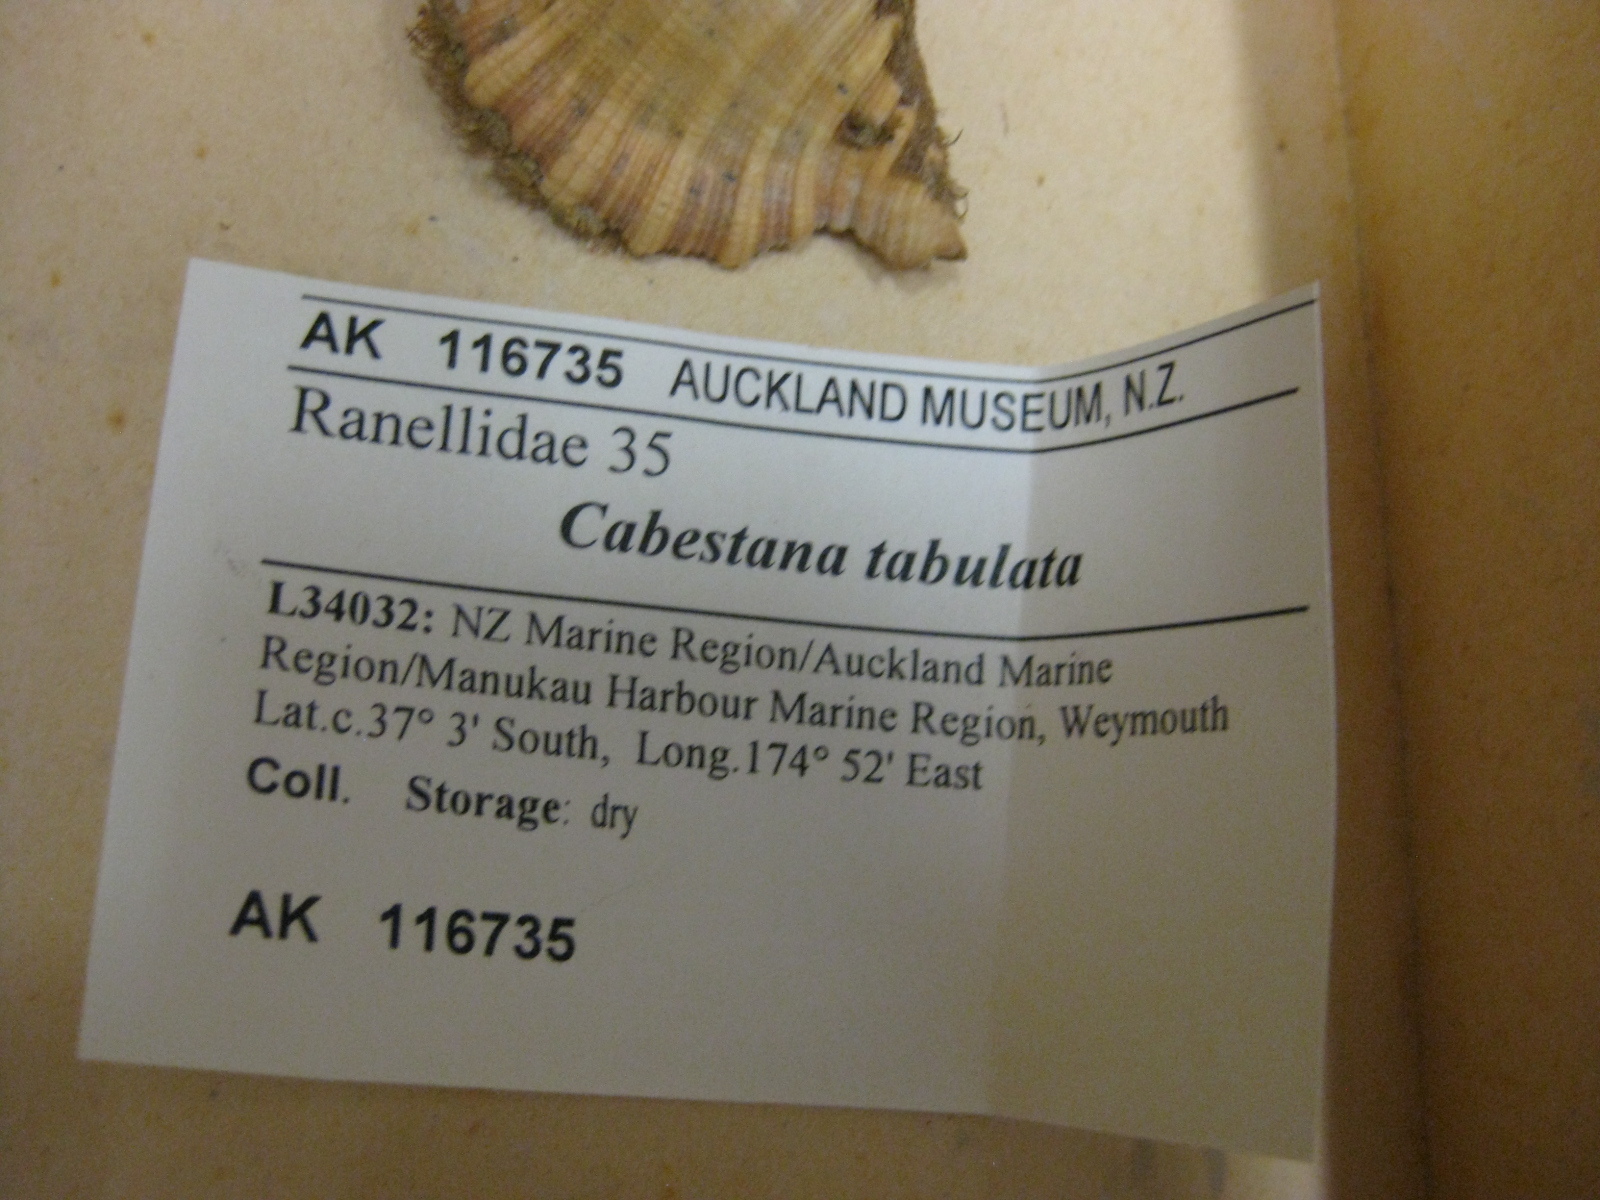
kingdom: Animalia
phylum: Mollusca
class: Gastropoda
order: Littorinimorpha
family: Cymatiidae
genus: Cabestana
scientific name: Cabestana tabulata
